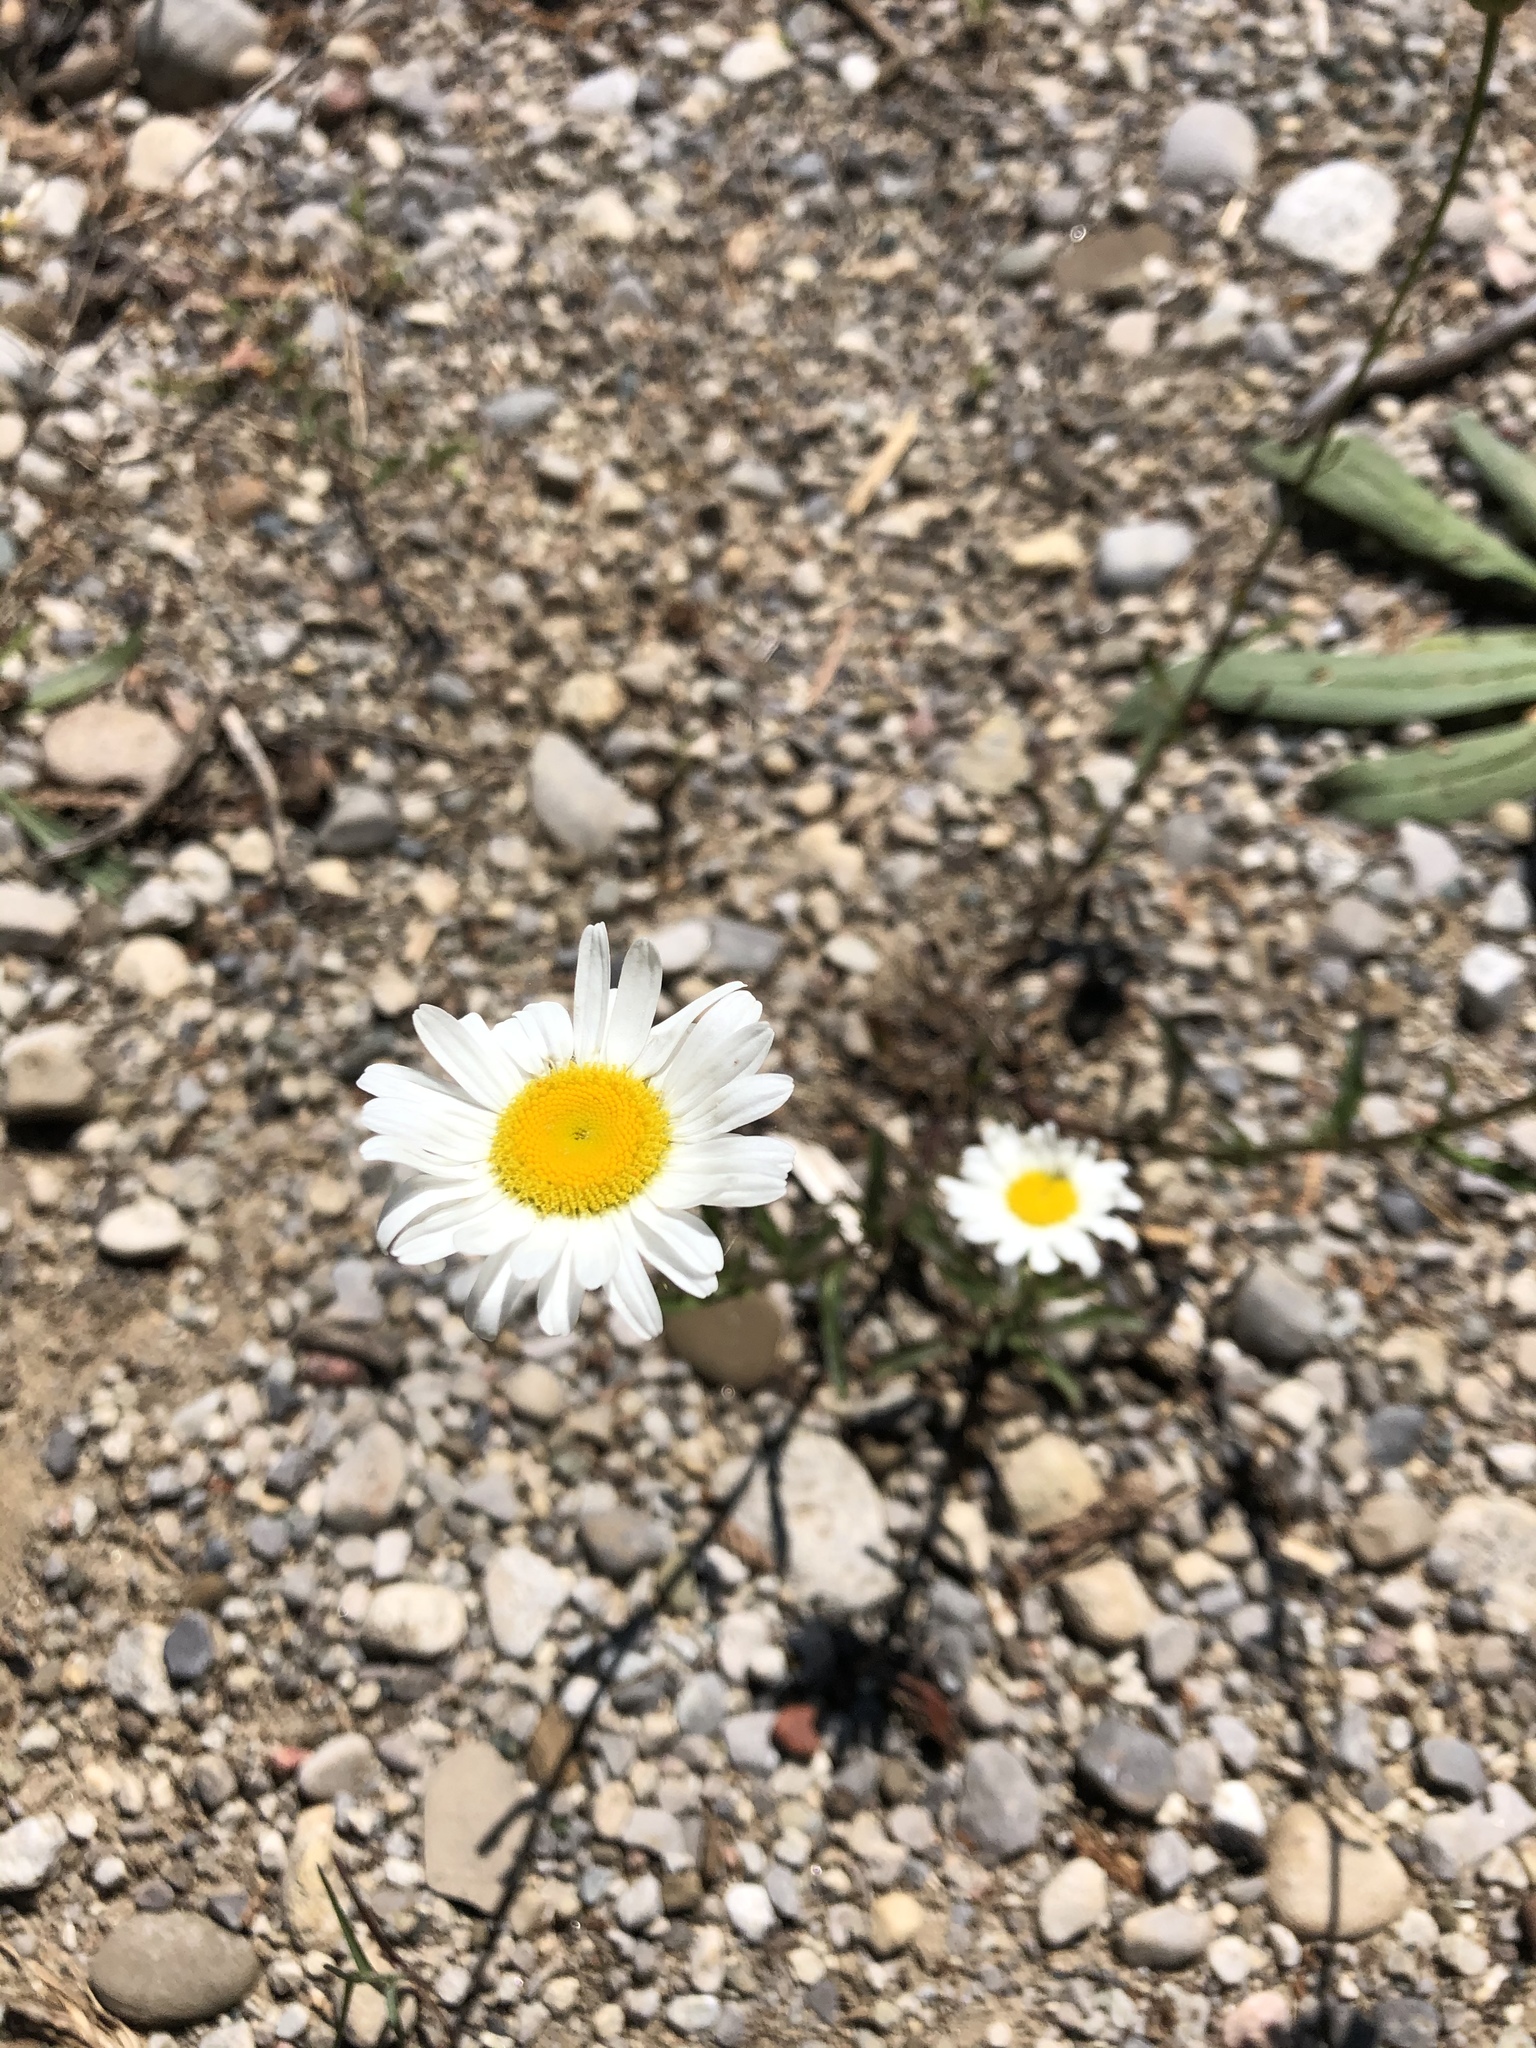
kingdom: Plantae
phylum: Tracheophyta
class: Magnoliopsida
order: Asterales
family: Asteraceae
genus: Leucanthemum
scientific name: Leucanthemum vulgare
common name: Oxeye daisy
